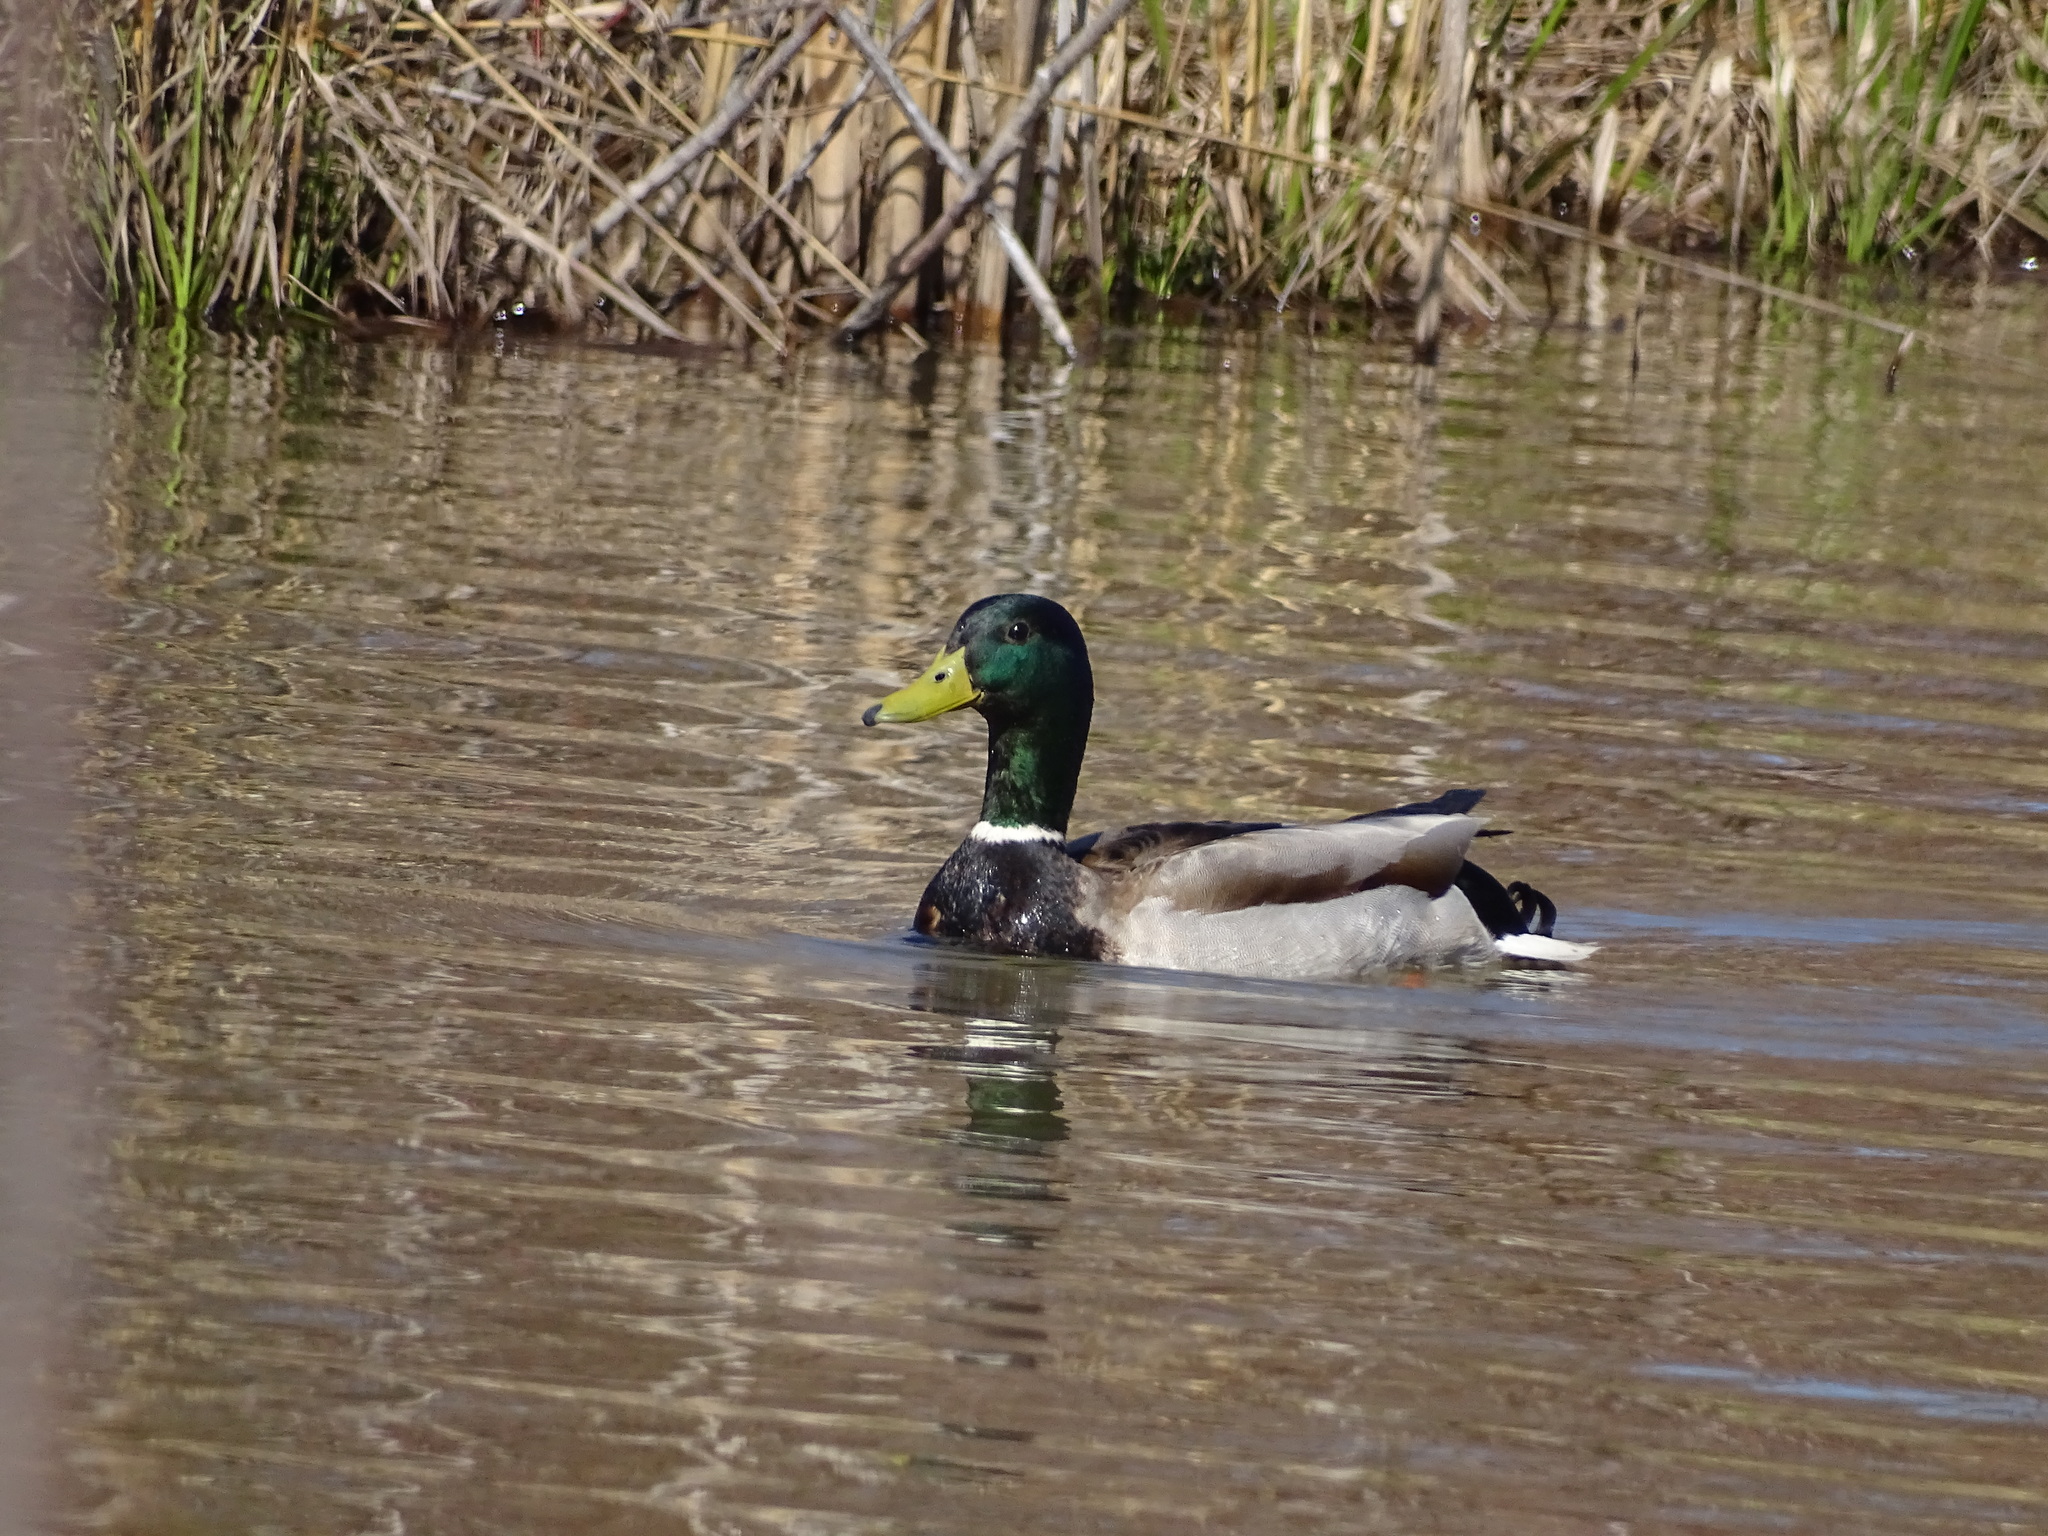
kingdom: Animalia
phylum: Chordata
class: Aves
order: Anseriformes
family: Anatidae
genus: Anas
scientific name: Anas platyrhynchos
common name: Mallard
